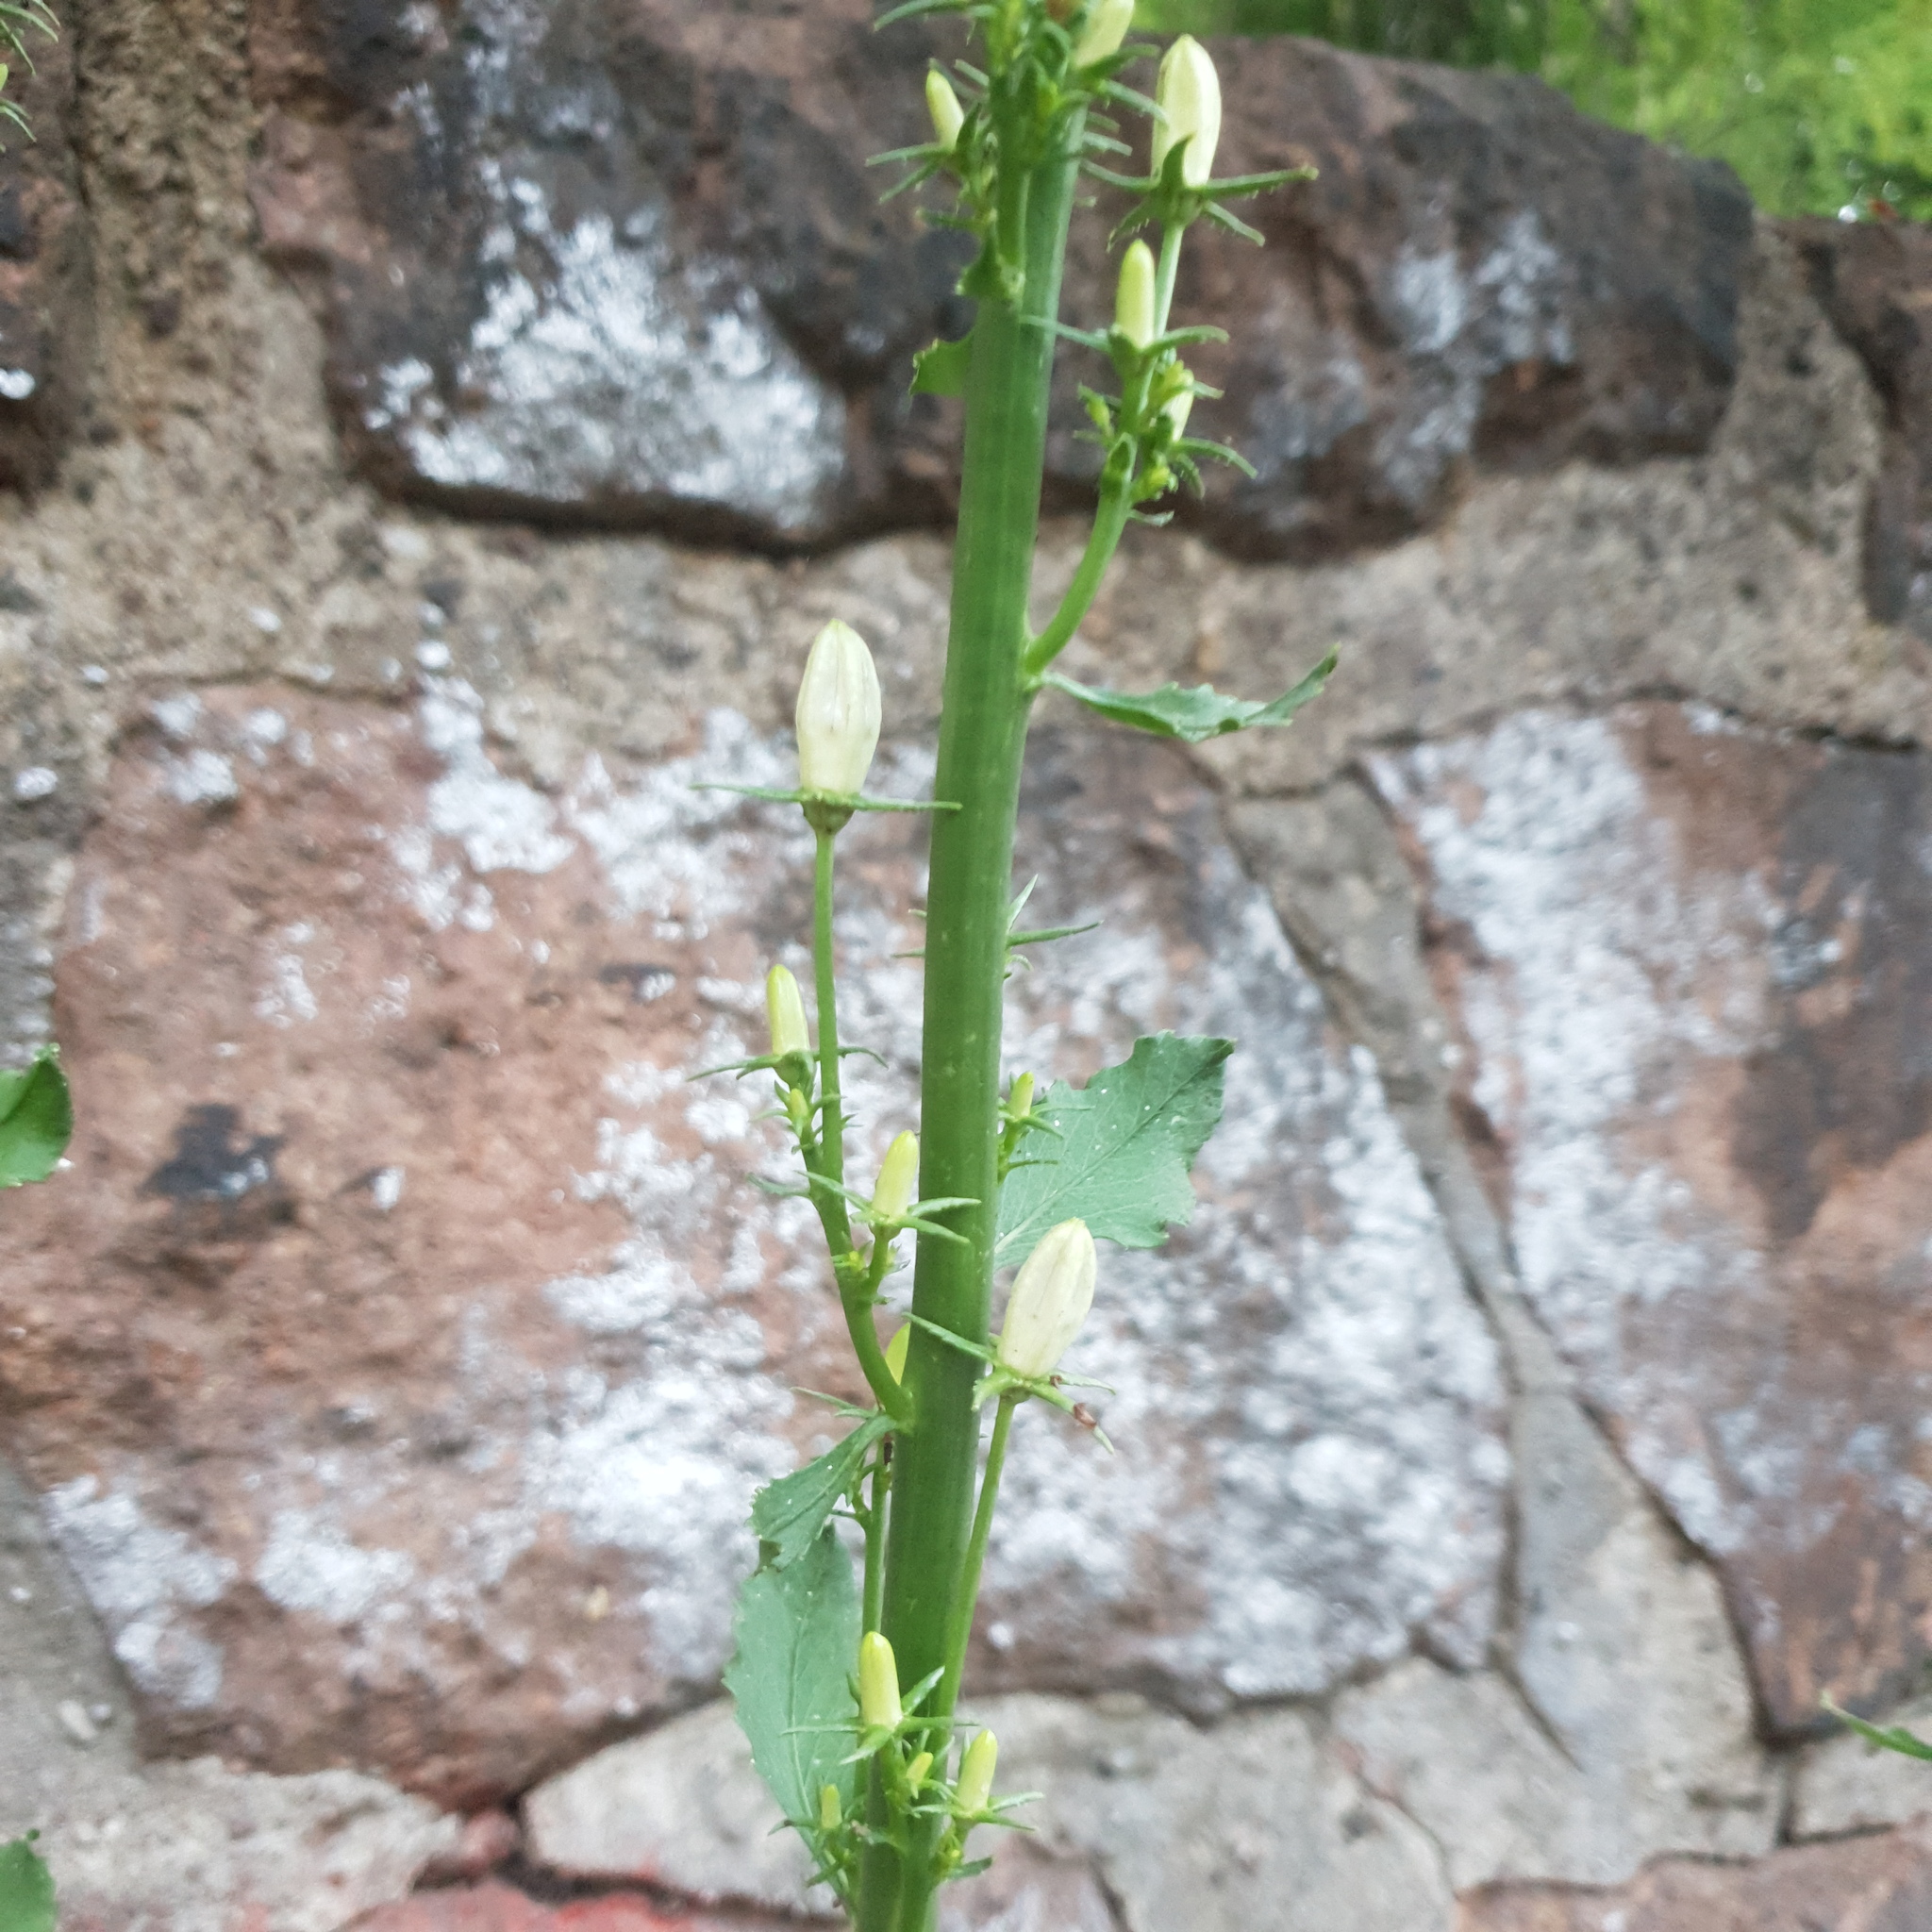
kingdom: Plantae
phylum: Tracheophyta
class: Magnoliopsida
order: Asterales
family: Campanulaceae
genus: Campanula
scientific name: Campanula pyramidalis
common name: Chimney bellflower
